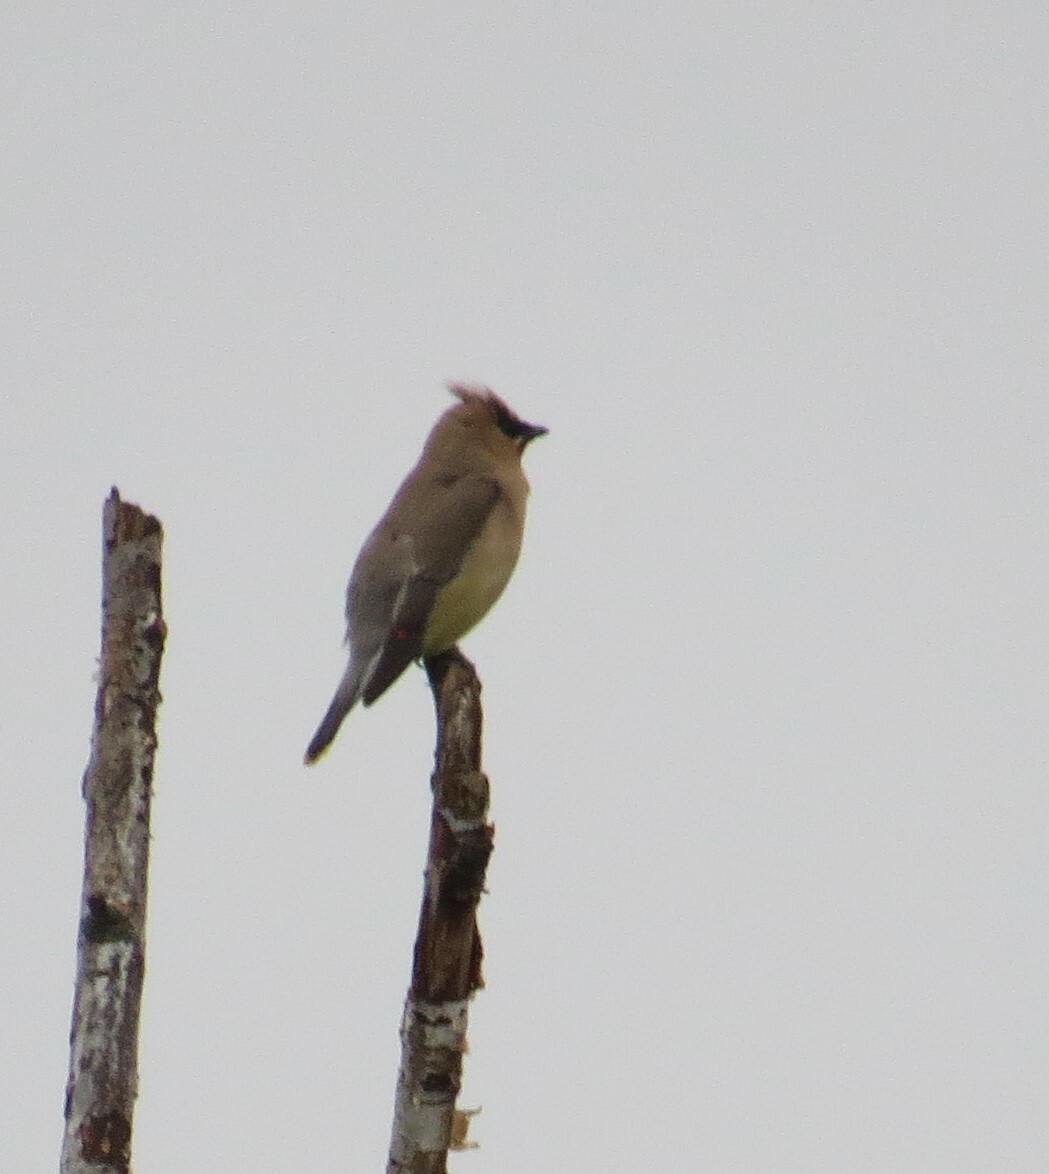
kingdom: Animalia
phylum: Chordata
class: Aves
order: Passeriformes
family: Bombycillidae
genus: Bombycilla
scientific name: Bombycilla cedrorum
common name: Cedar waxwing
